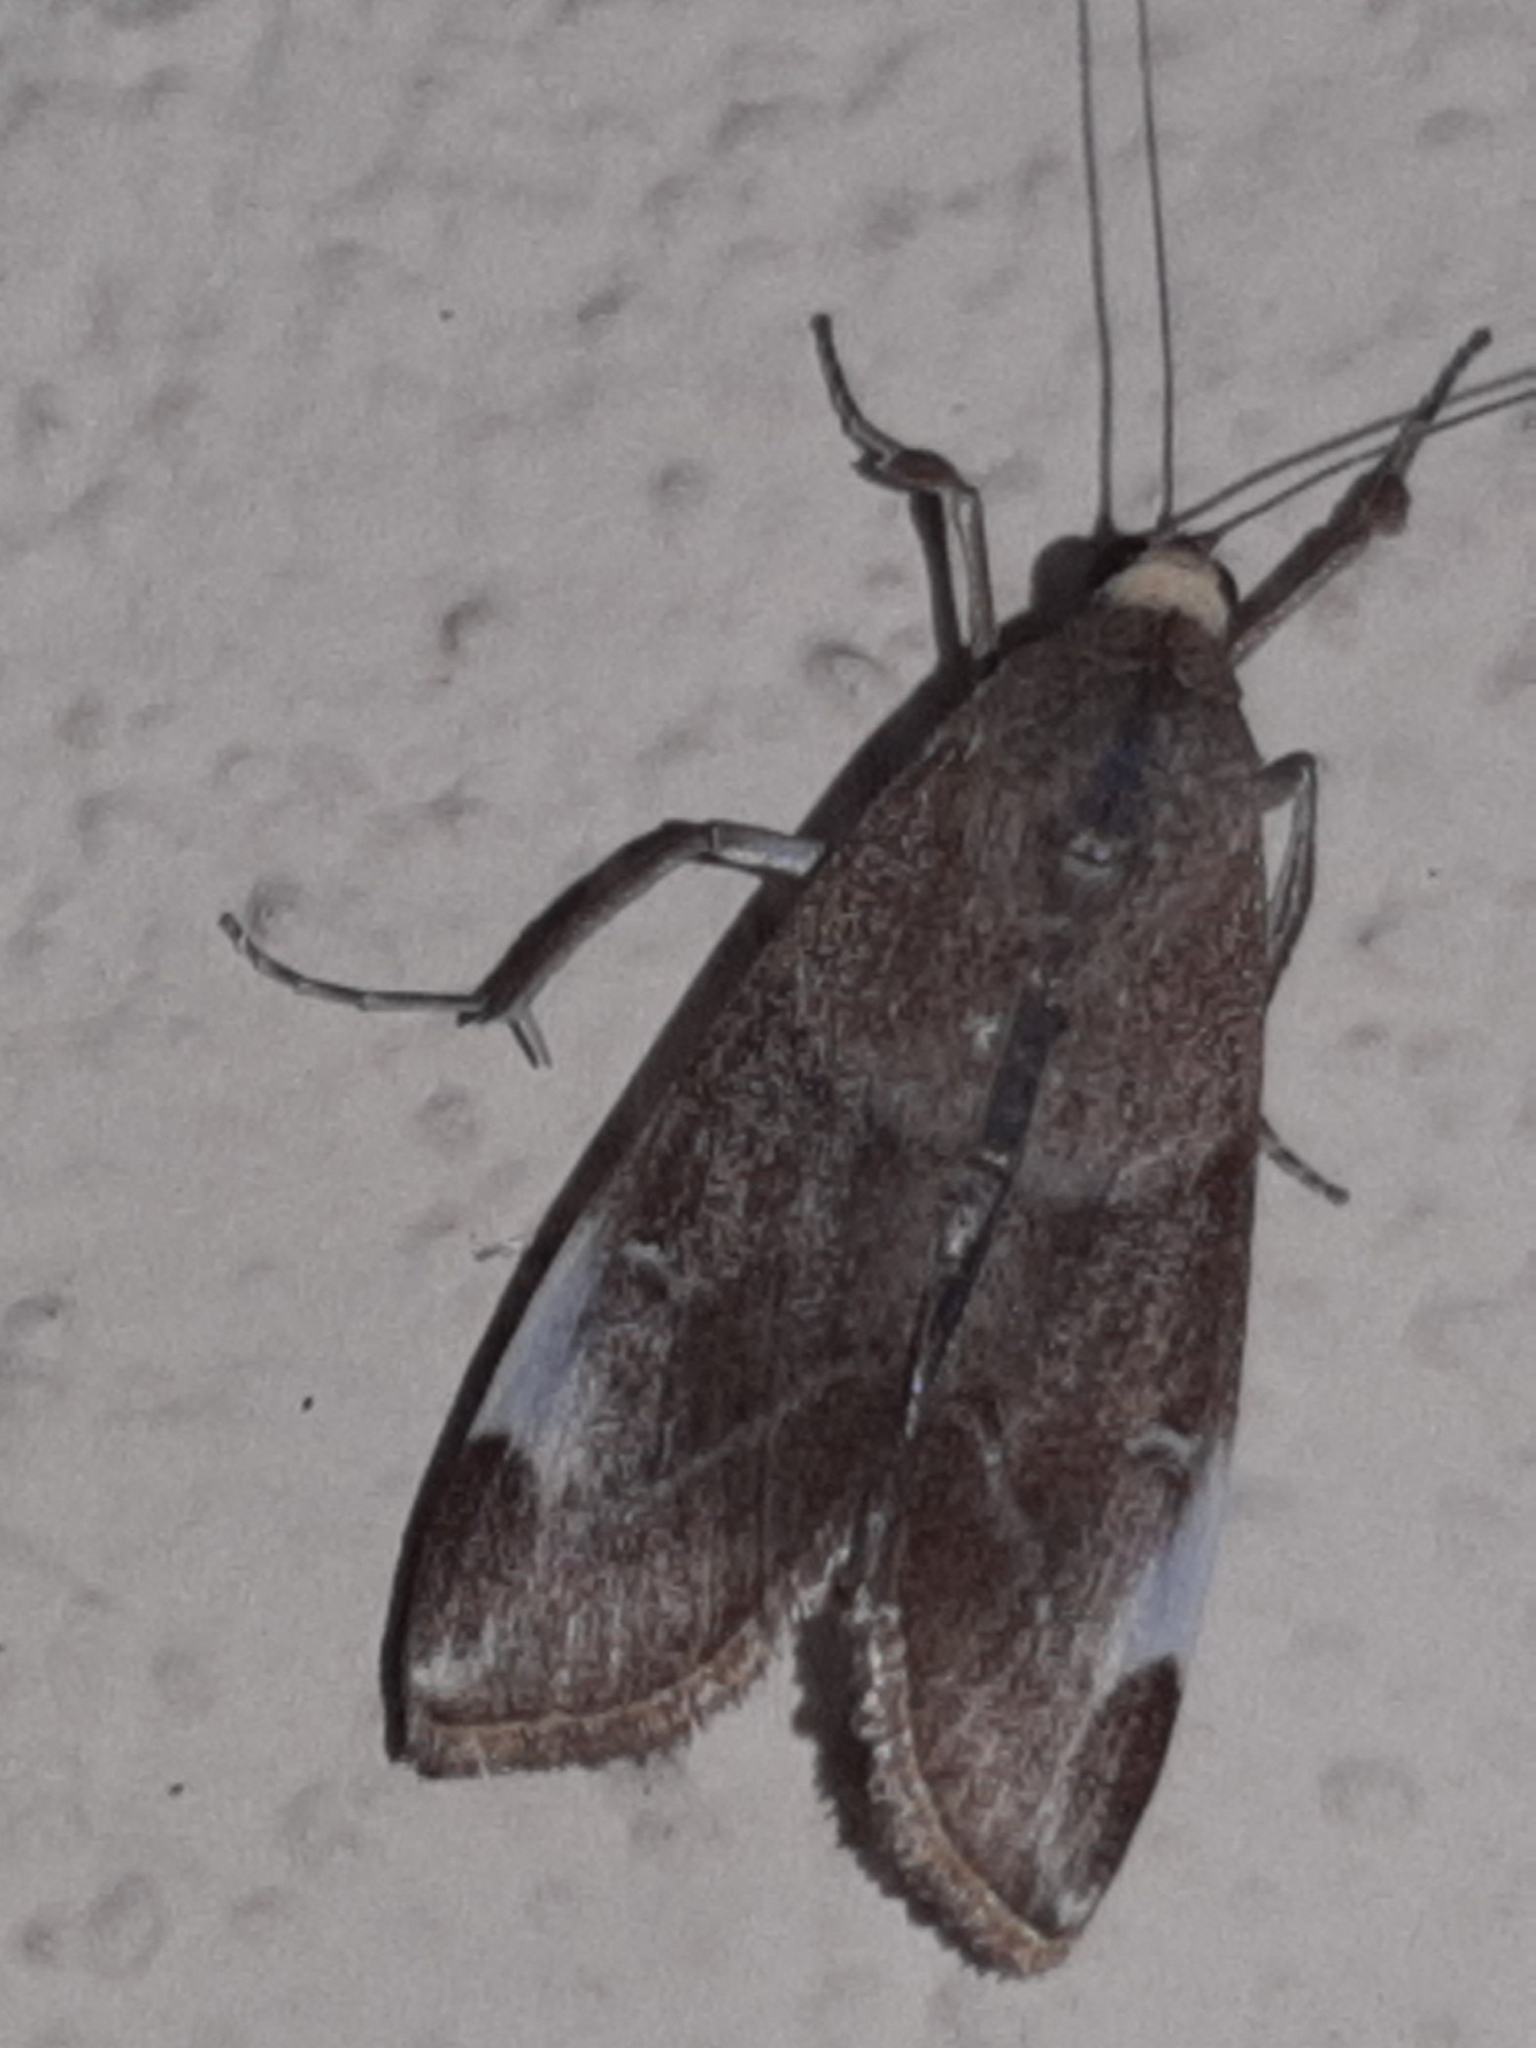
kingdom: Animalia
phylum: Arthropoda
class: Insecta
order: Lepidoptera
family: Crambidae
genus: Cliniodes
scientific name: Cliniodes opalalis
